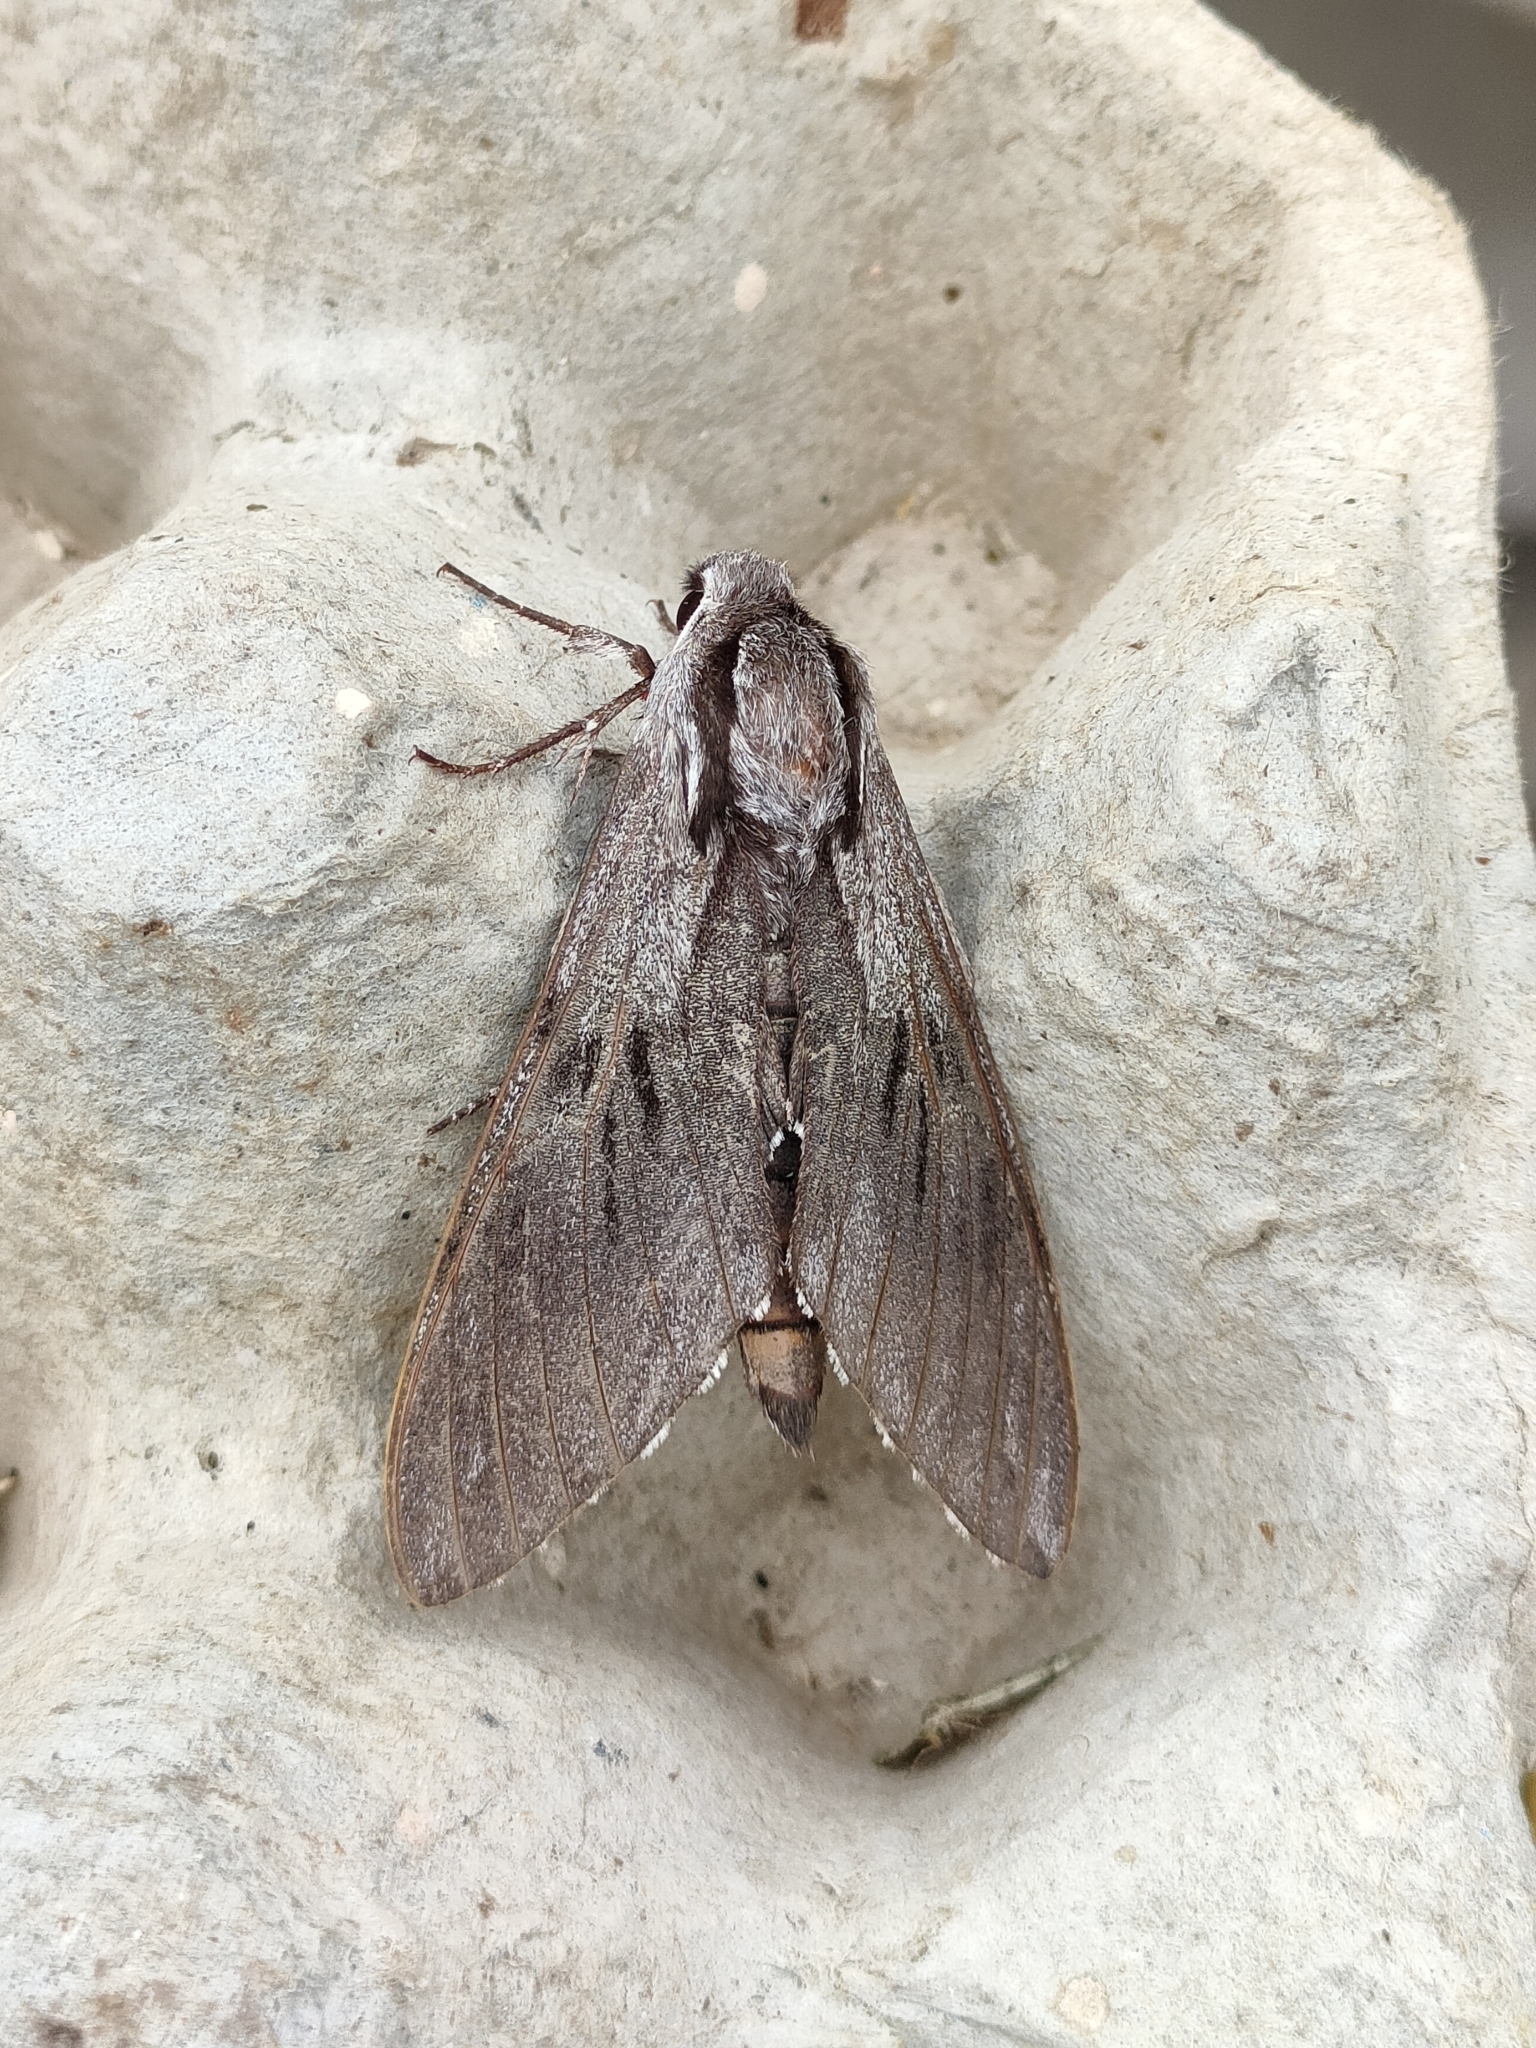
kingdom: Animalia
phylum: Arthropoda
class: Insecta
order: Lepidoptera
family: Sphingidae
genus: Sphinx
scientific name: Sphinx maurorum
